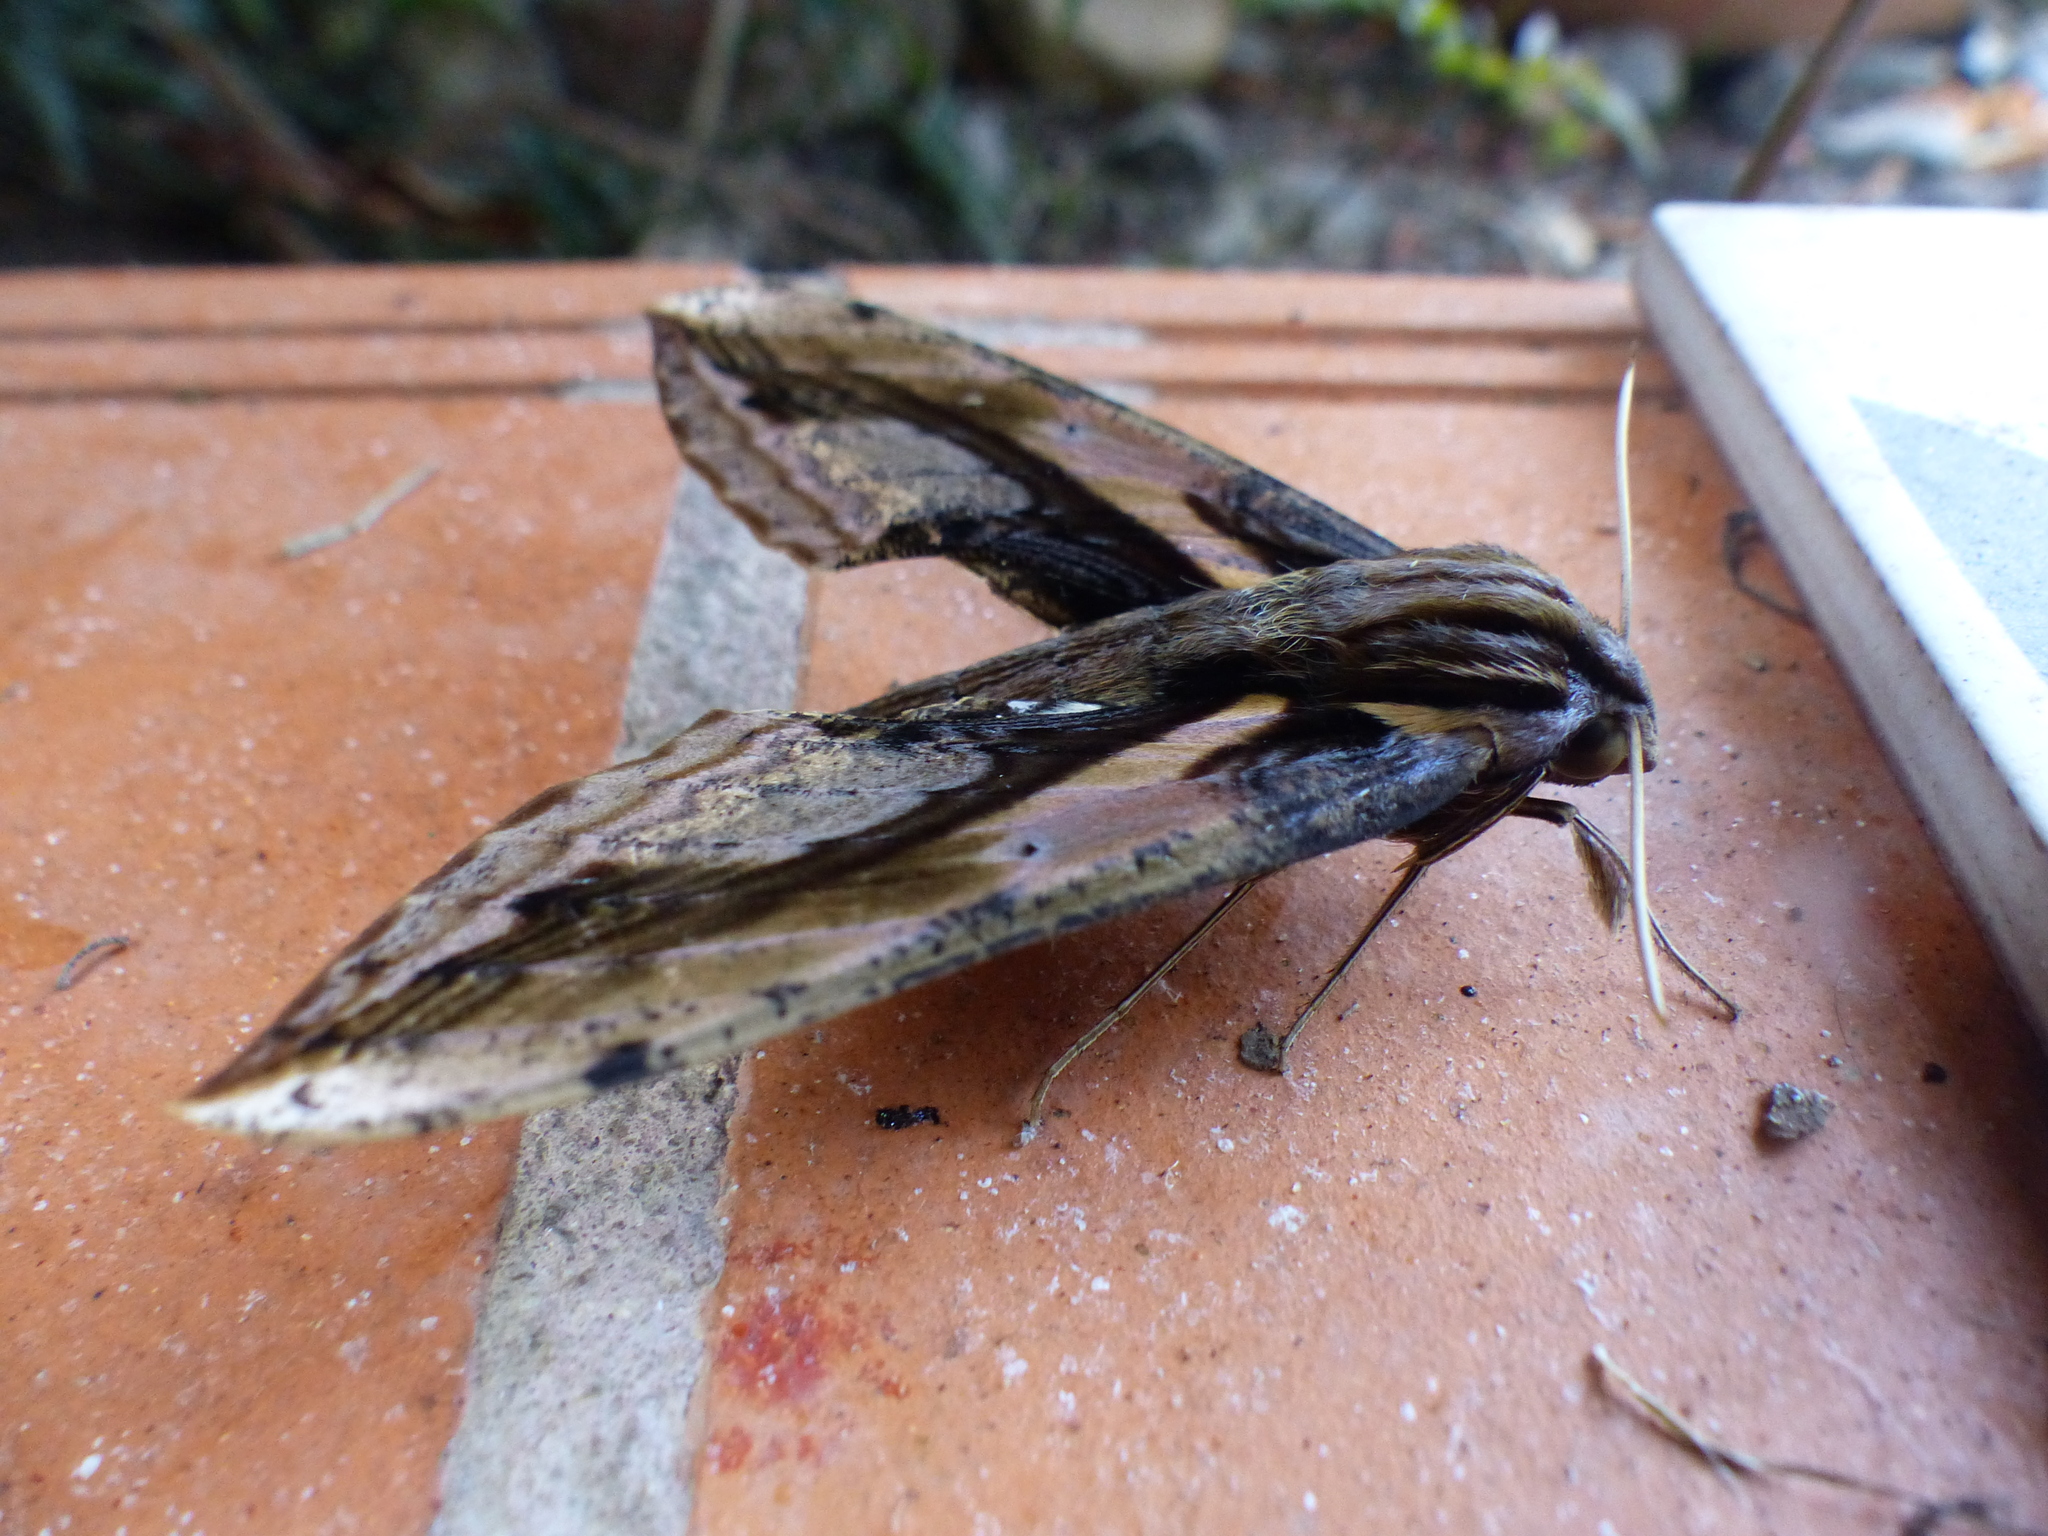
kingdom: Animalia
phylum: Arthropoda
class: Insecta
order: Lepidoptera
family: Sphingidae
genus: Xylophanes
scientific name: Xylophanes ceratomioides
